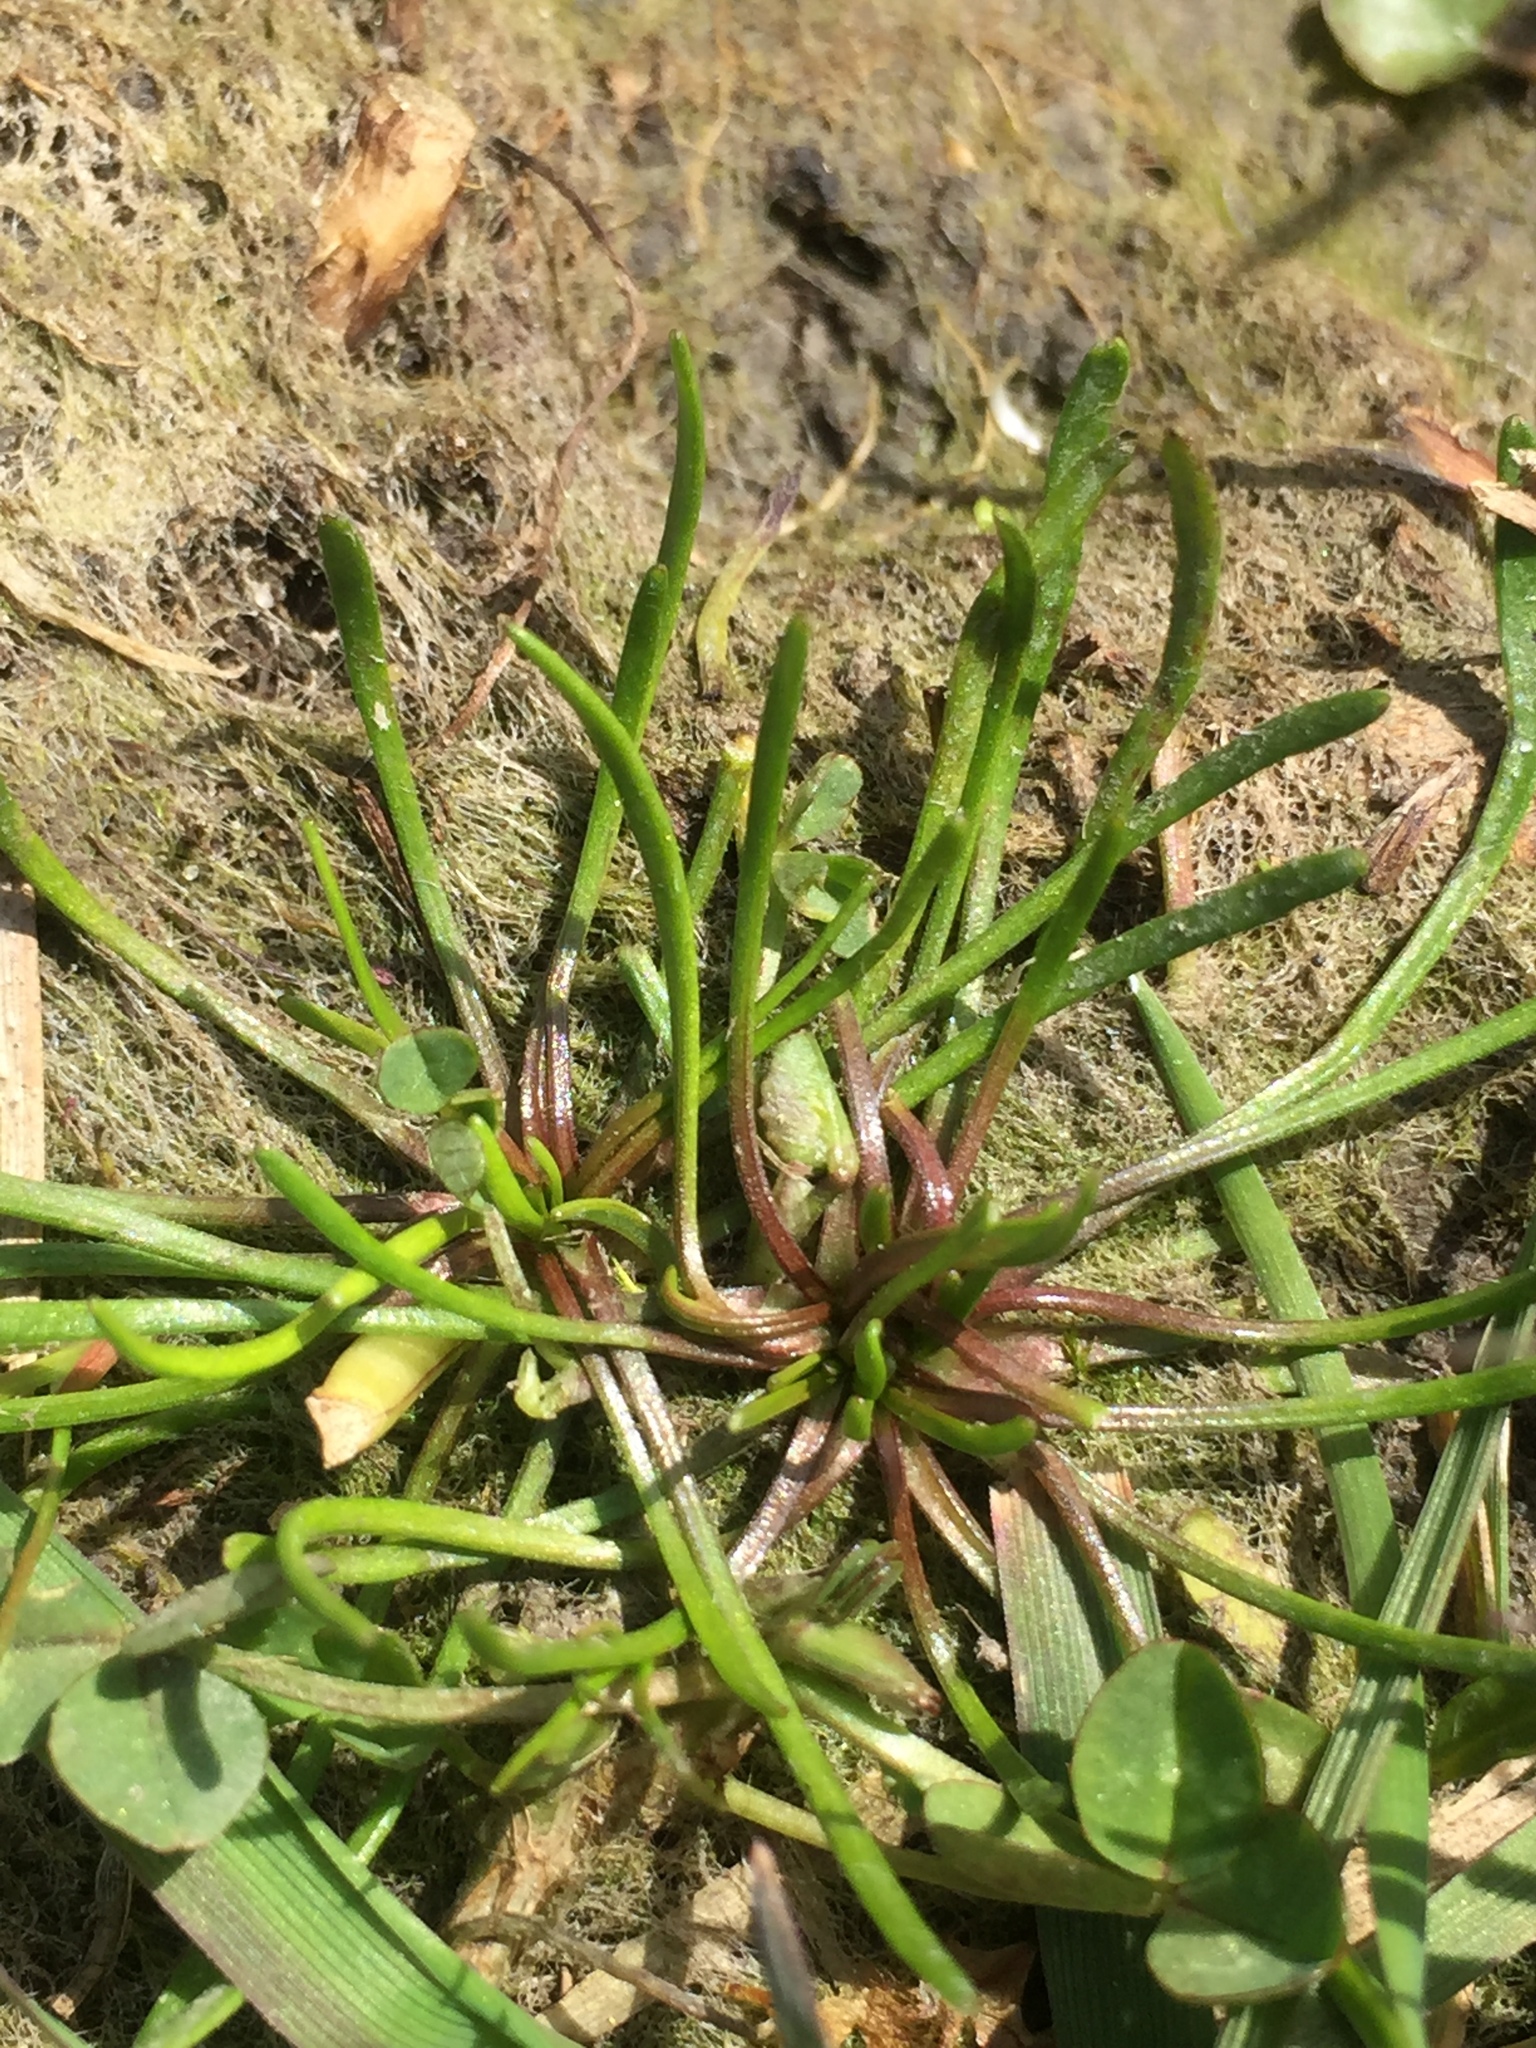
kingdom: Plantae
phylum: Tracheophyta
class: Magnoliopsida
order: Ranunculales
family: Ranunculaceae
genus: Myosurus
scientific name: Myosurus minimus
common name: Mousetail
